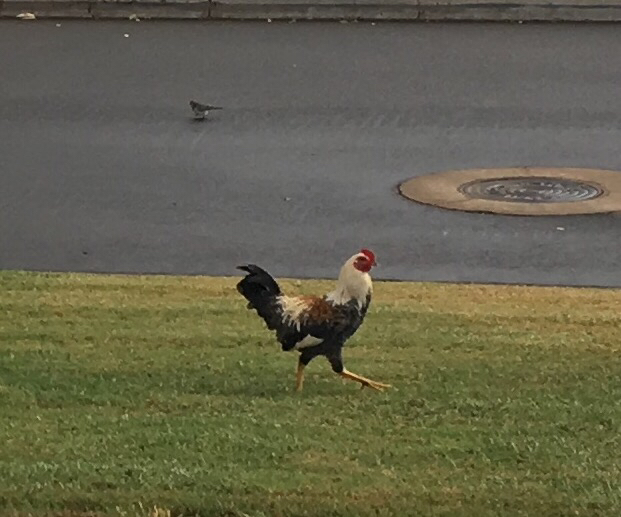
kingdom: Animalia
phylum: Chordata
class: Aves
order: Galliformes
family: Phasianidae
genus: Gallus
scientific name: Gallus gallus
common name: Red junglefowl
